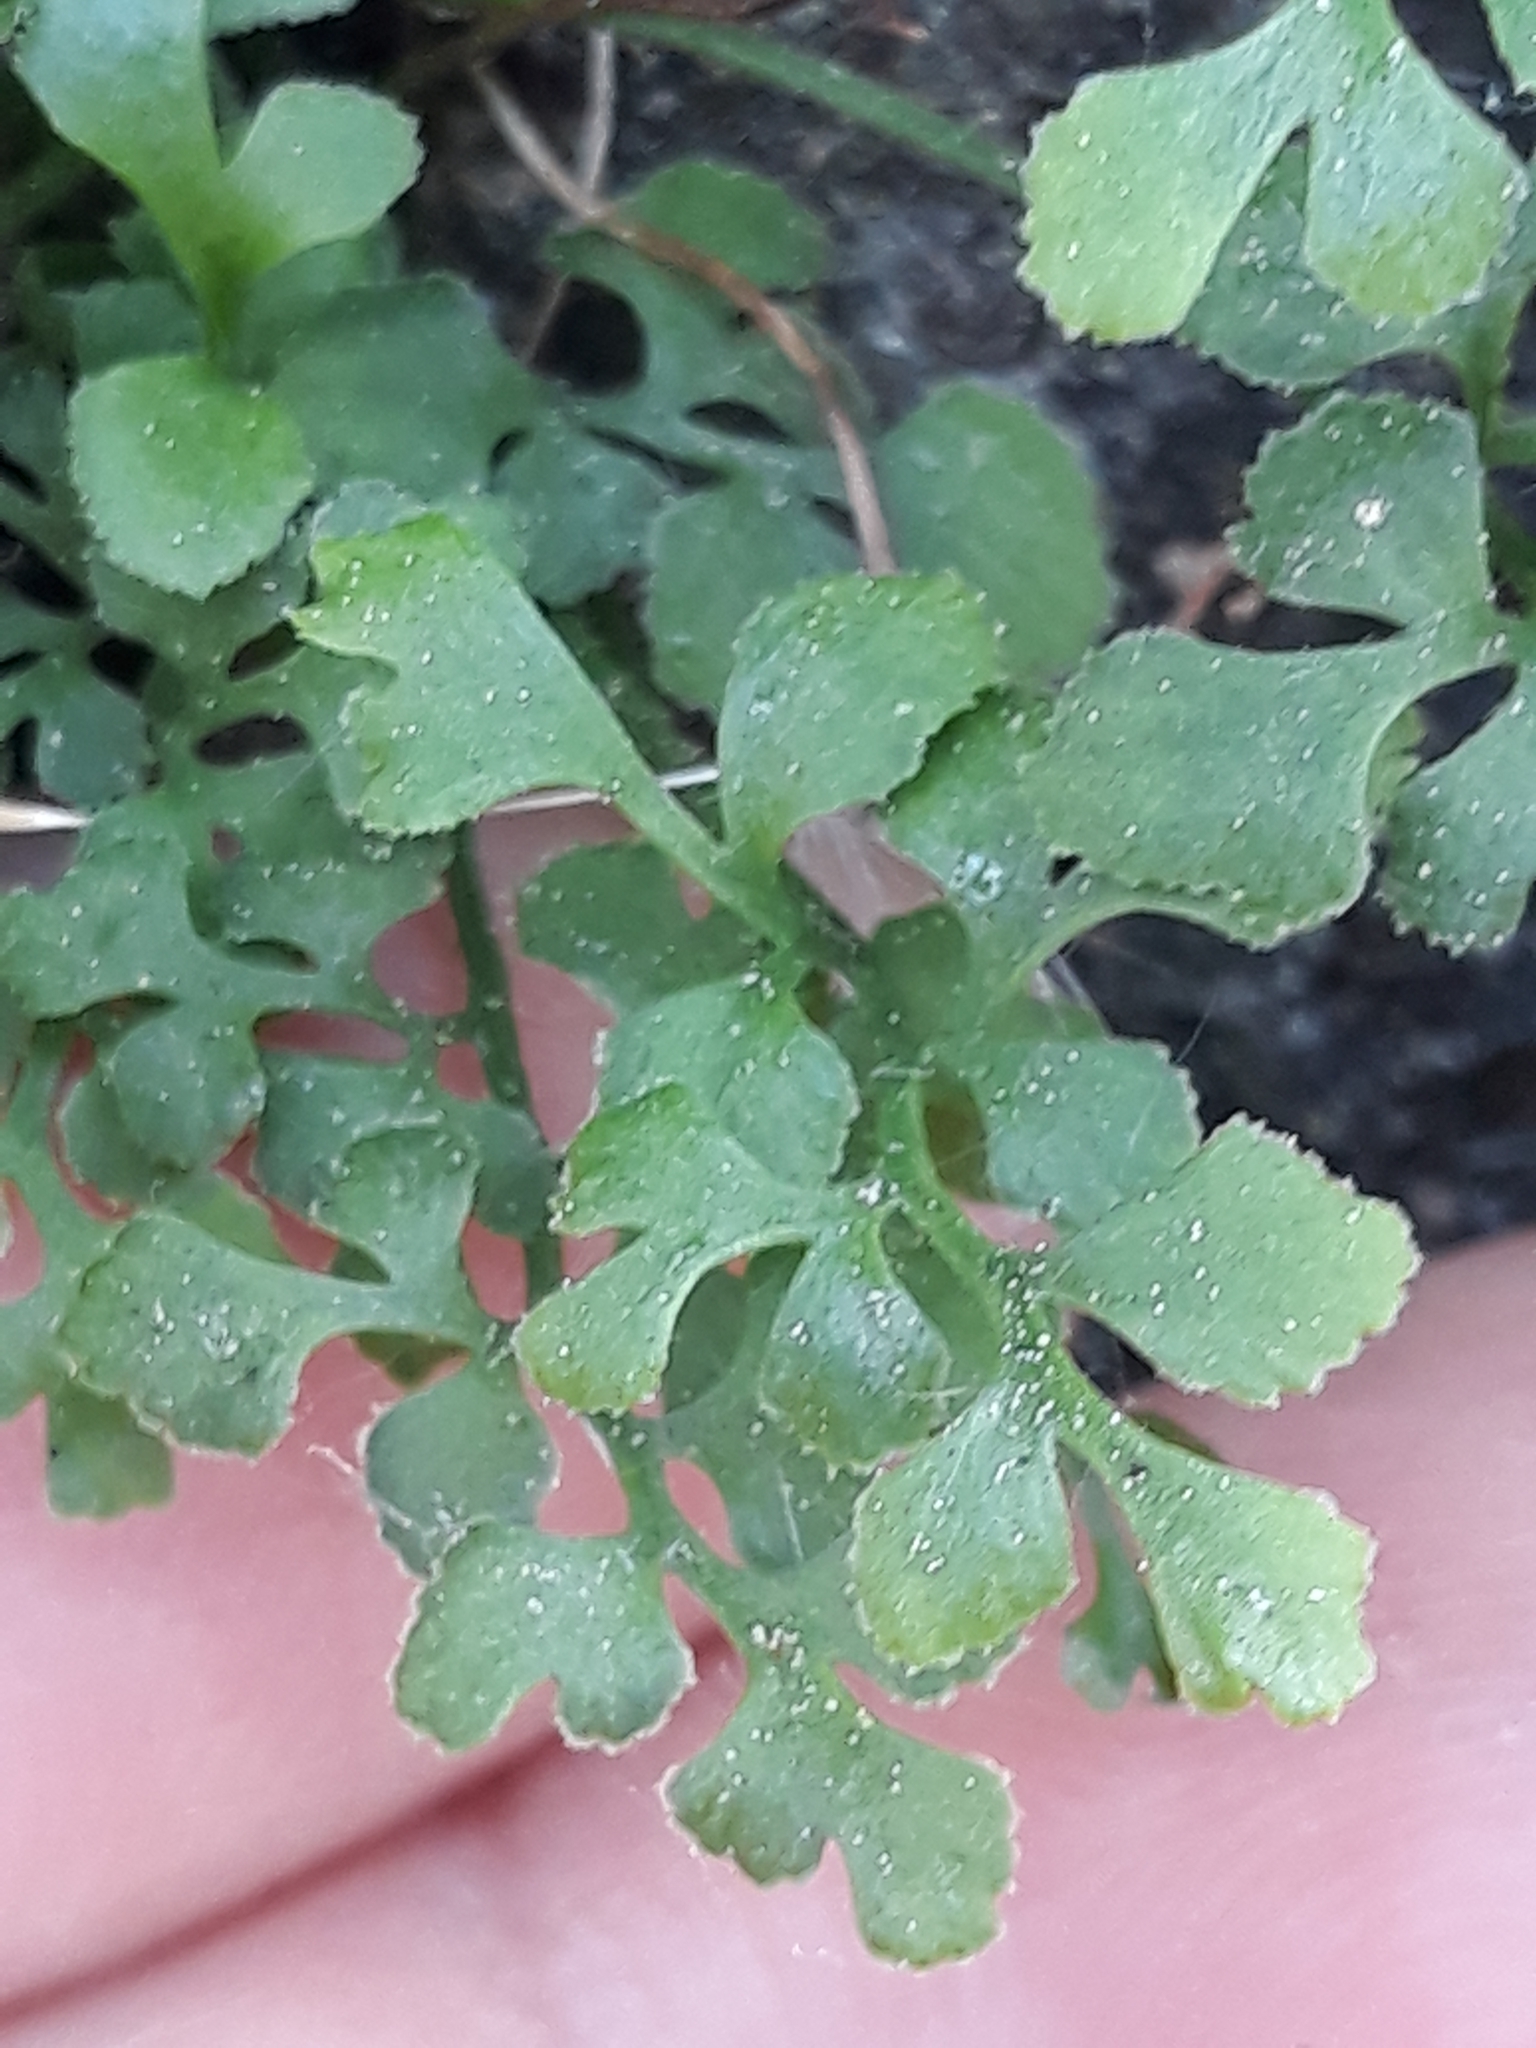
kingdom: Plantae
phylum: Tracheophyta
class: Polypodiopsida
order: Polypodiales
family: Aspleniaceae
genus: Asplenium
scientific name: Asplenium ruta-muraria
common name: Wall-rue
